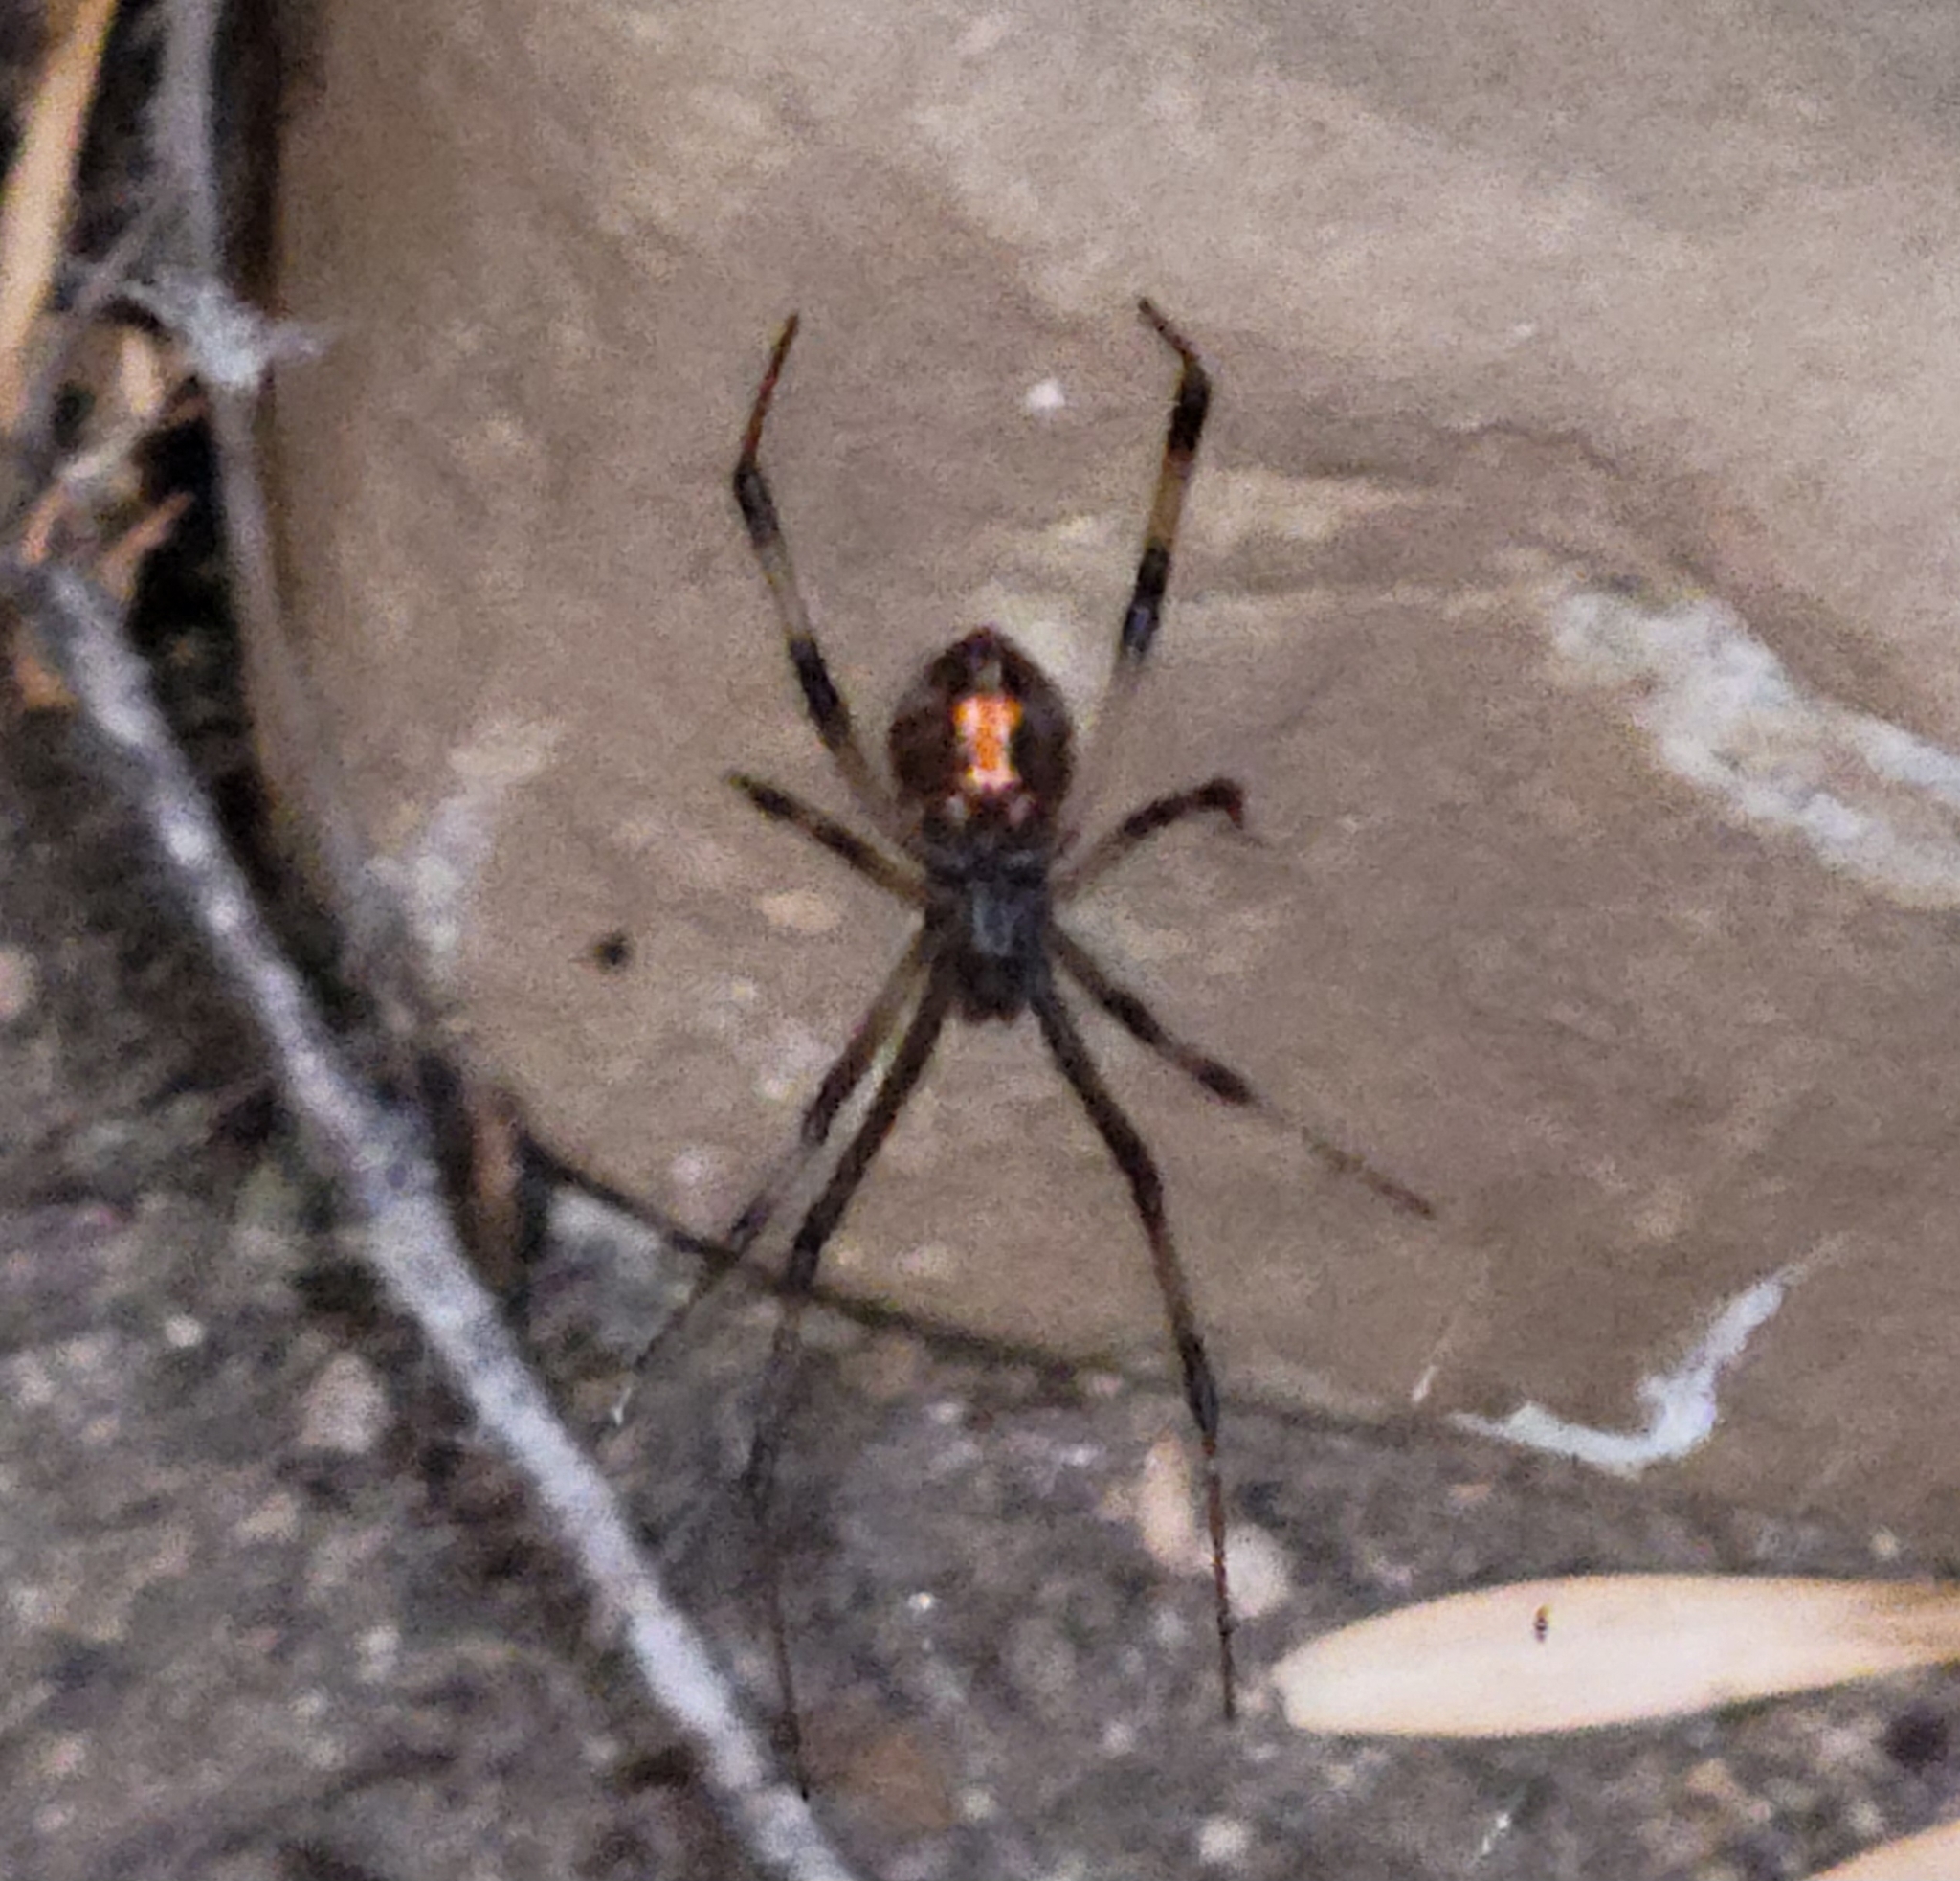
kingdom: Animalia
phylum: Arthropoda
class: Arachnida
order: Araneae
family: Theridiidae
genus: Latrodectus
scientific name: Latrodectus geometricus
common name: Brown widow spider
